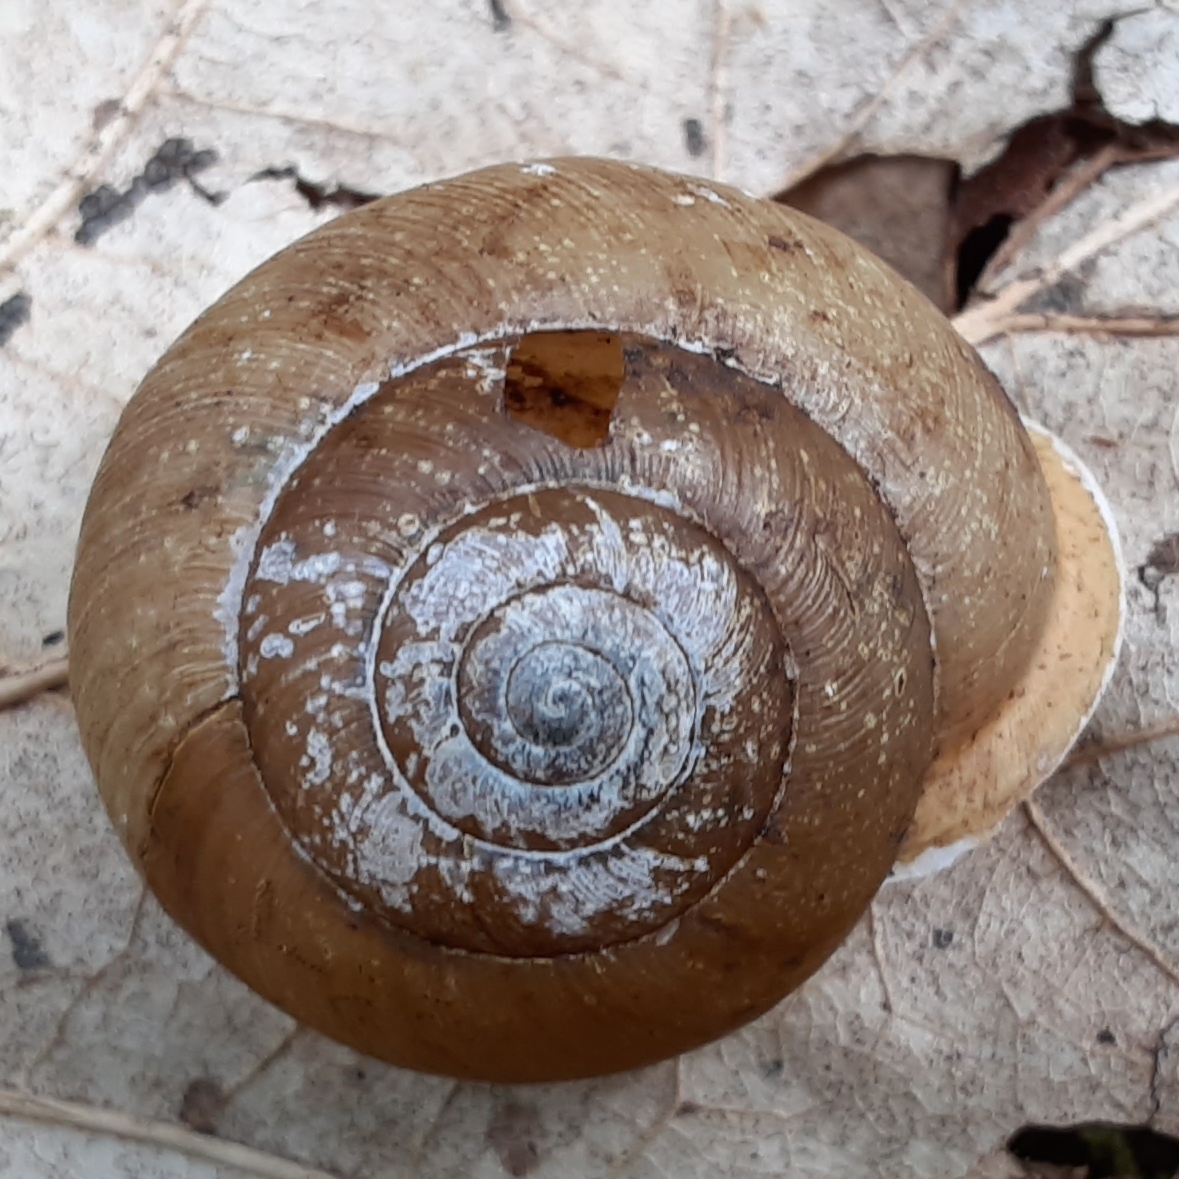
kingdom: Animalia
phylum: Mollusca
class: Gastropoda
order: Stylommatophora
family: Polygyridae
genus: Neohelix
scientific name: Neohelix albolabris
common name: Eastern whitelip
